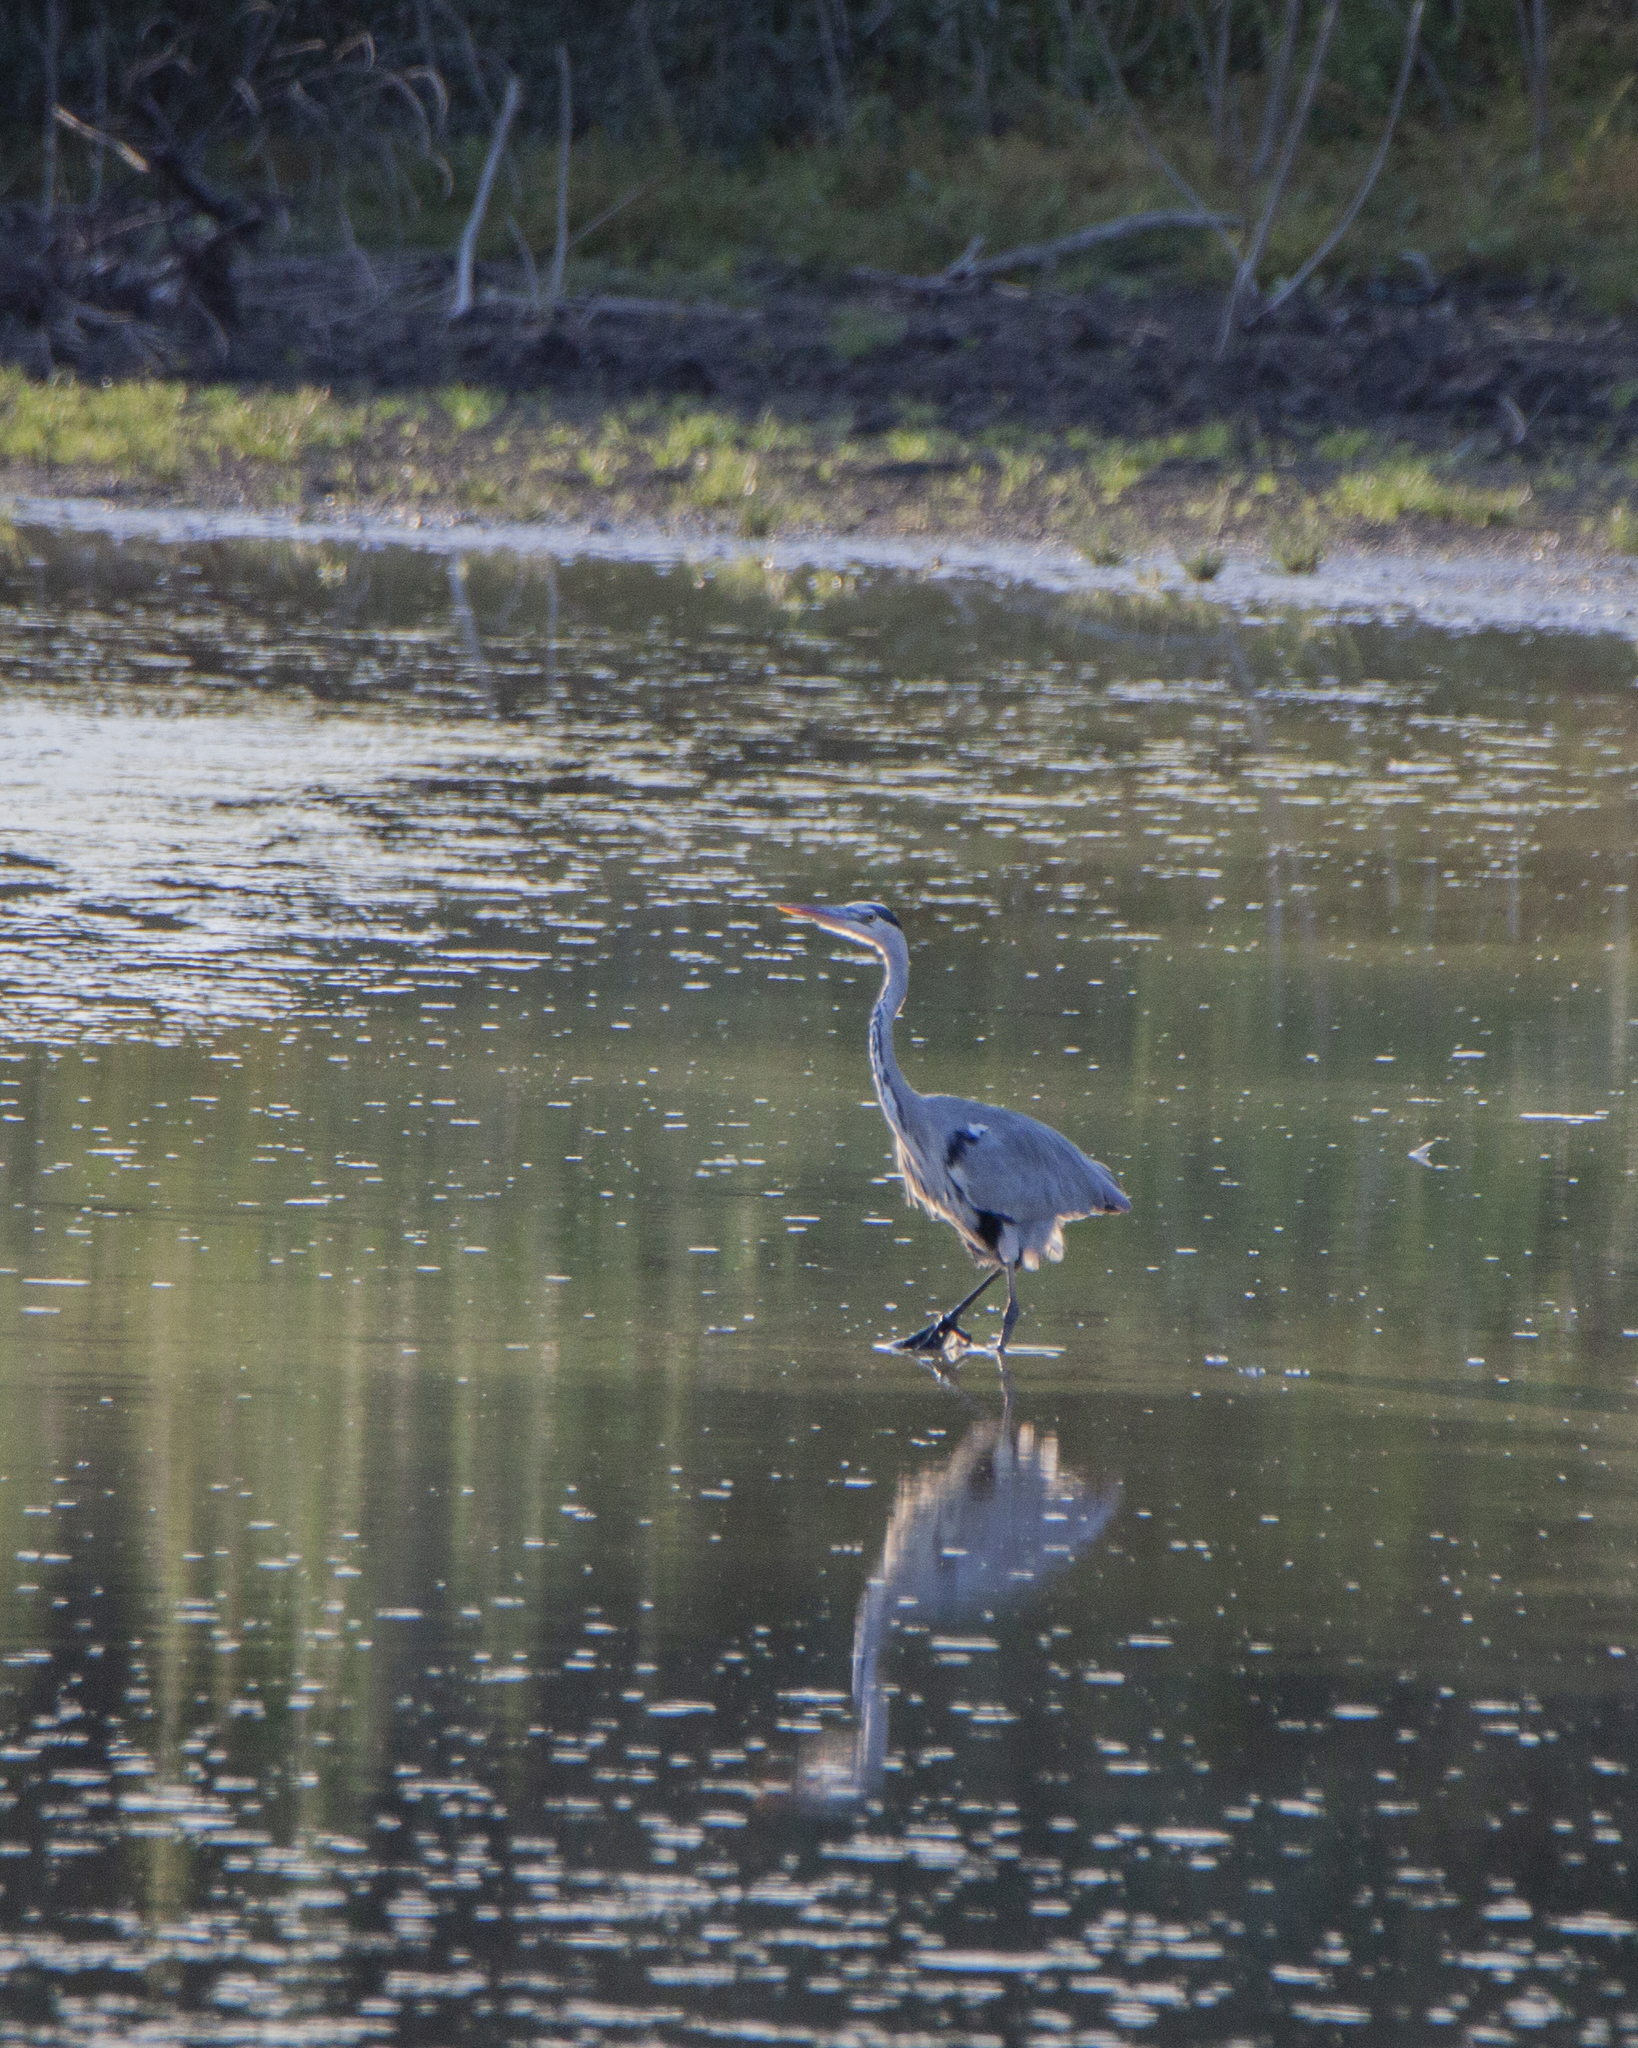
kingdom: Animalia
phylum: Chordata
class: Aves
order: Pelecaniformes
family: Ardeidae
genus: Ardea
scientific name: Ardea cinerea
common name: Grey heron
